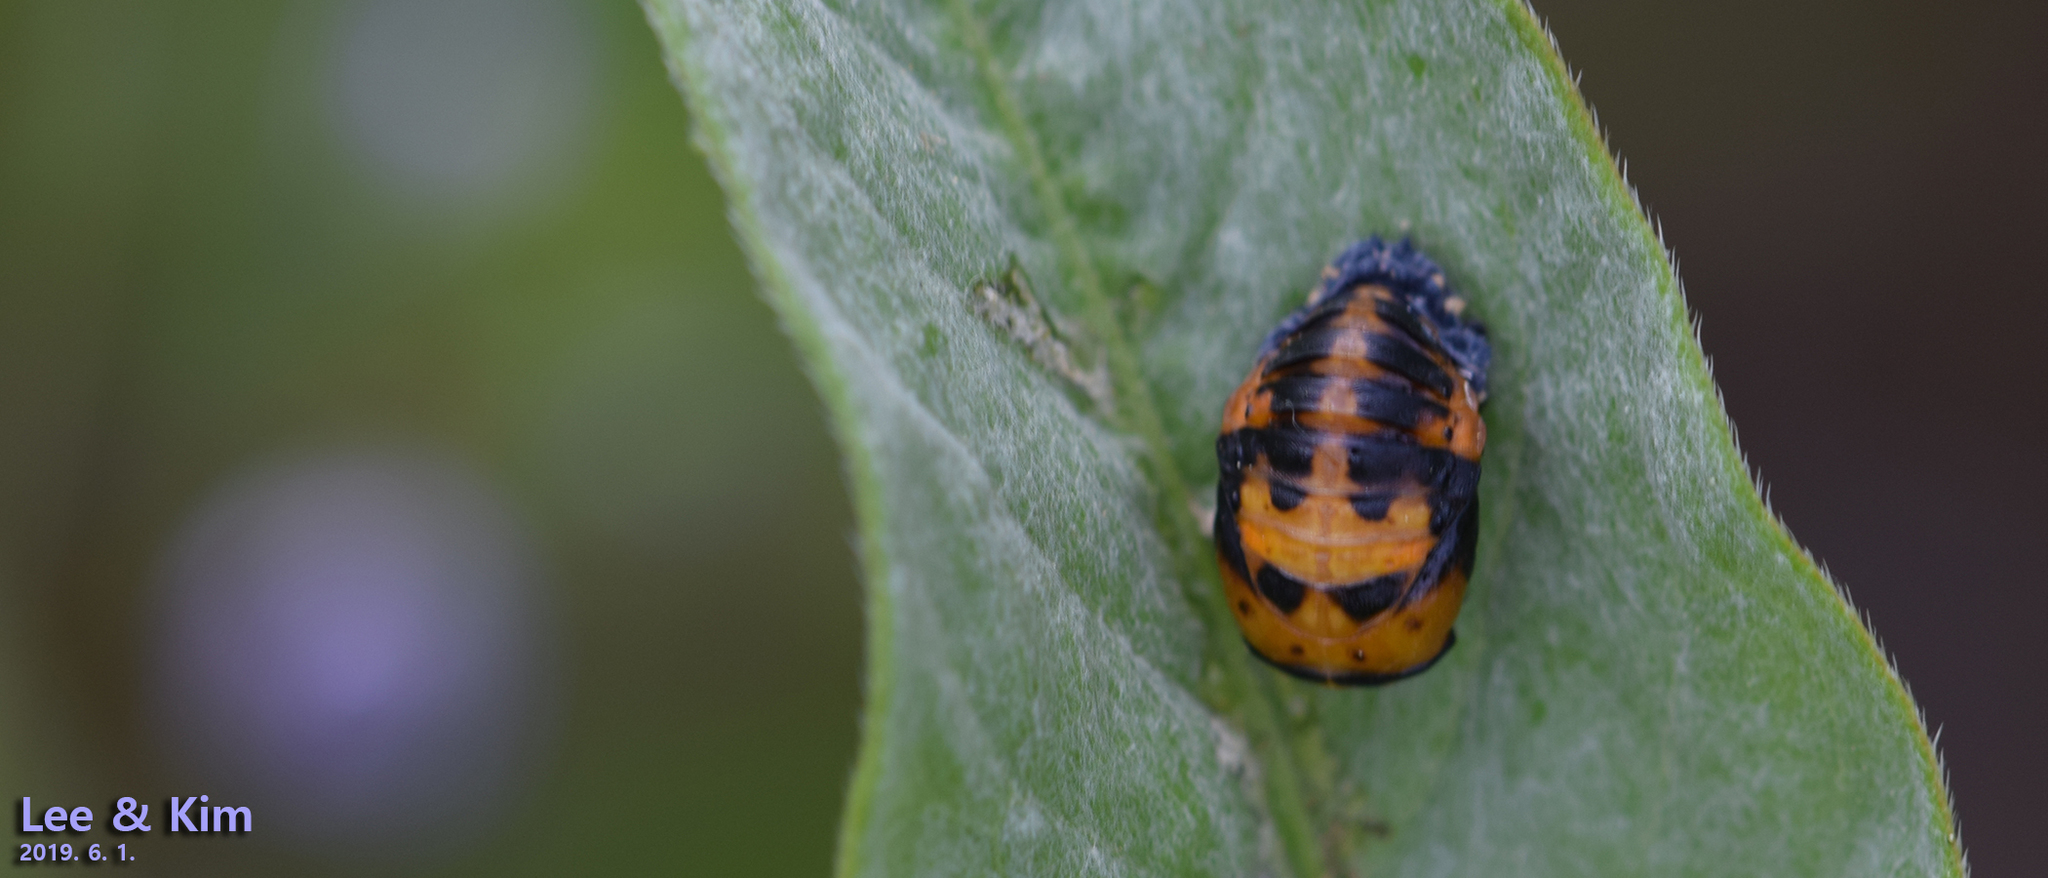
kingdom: Animalia
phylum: Arthropoda
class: Insecta
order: Coleoptera
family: Coccinellidae
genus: Harmonia
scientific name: Harmonia axyridis
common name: Harlequin ladybird
